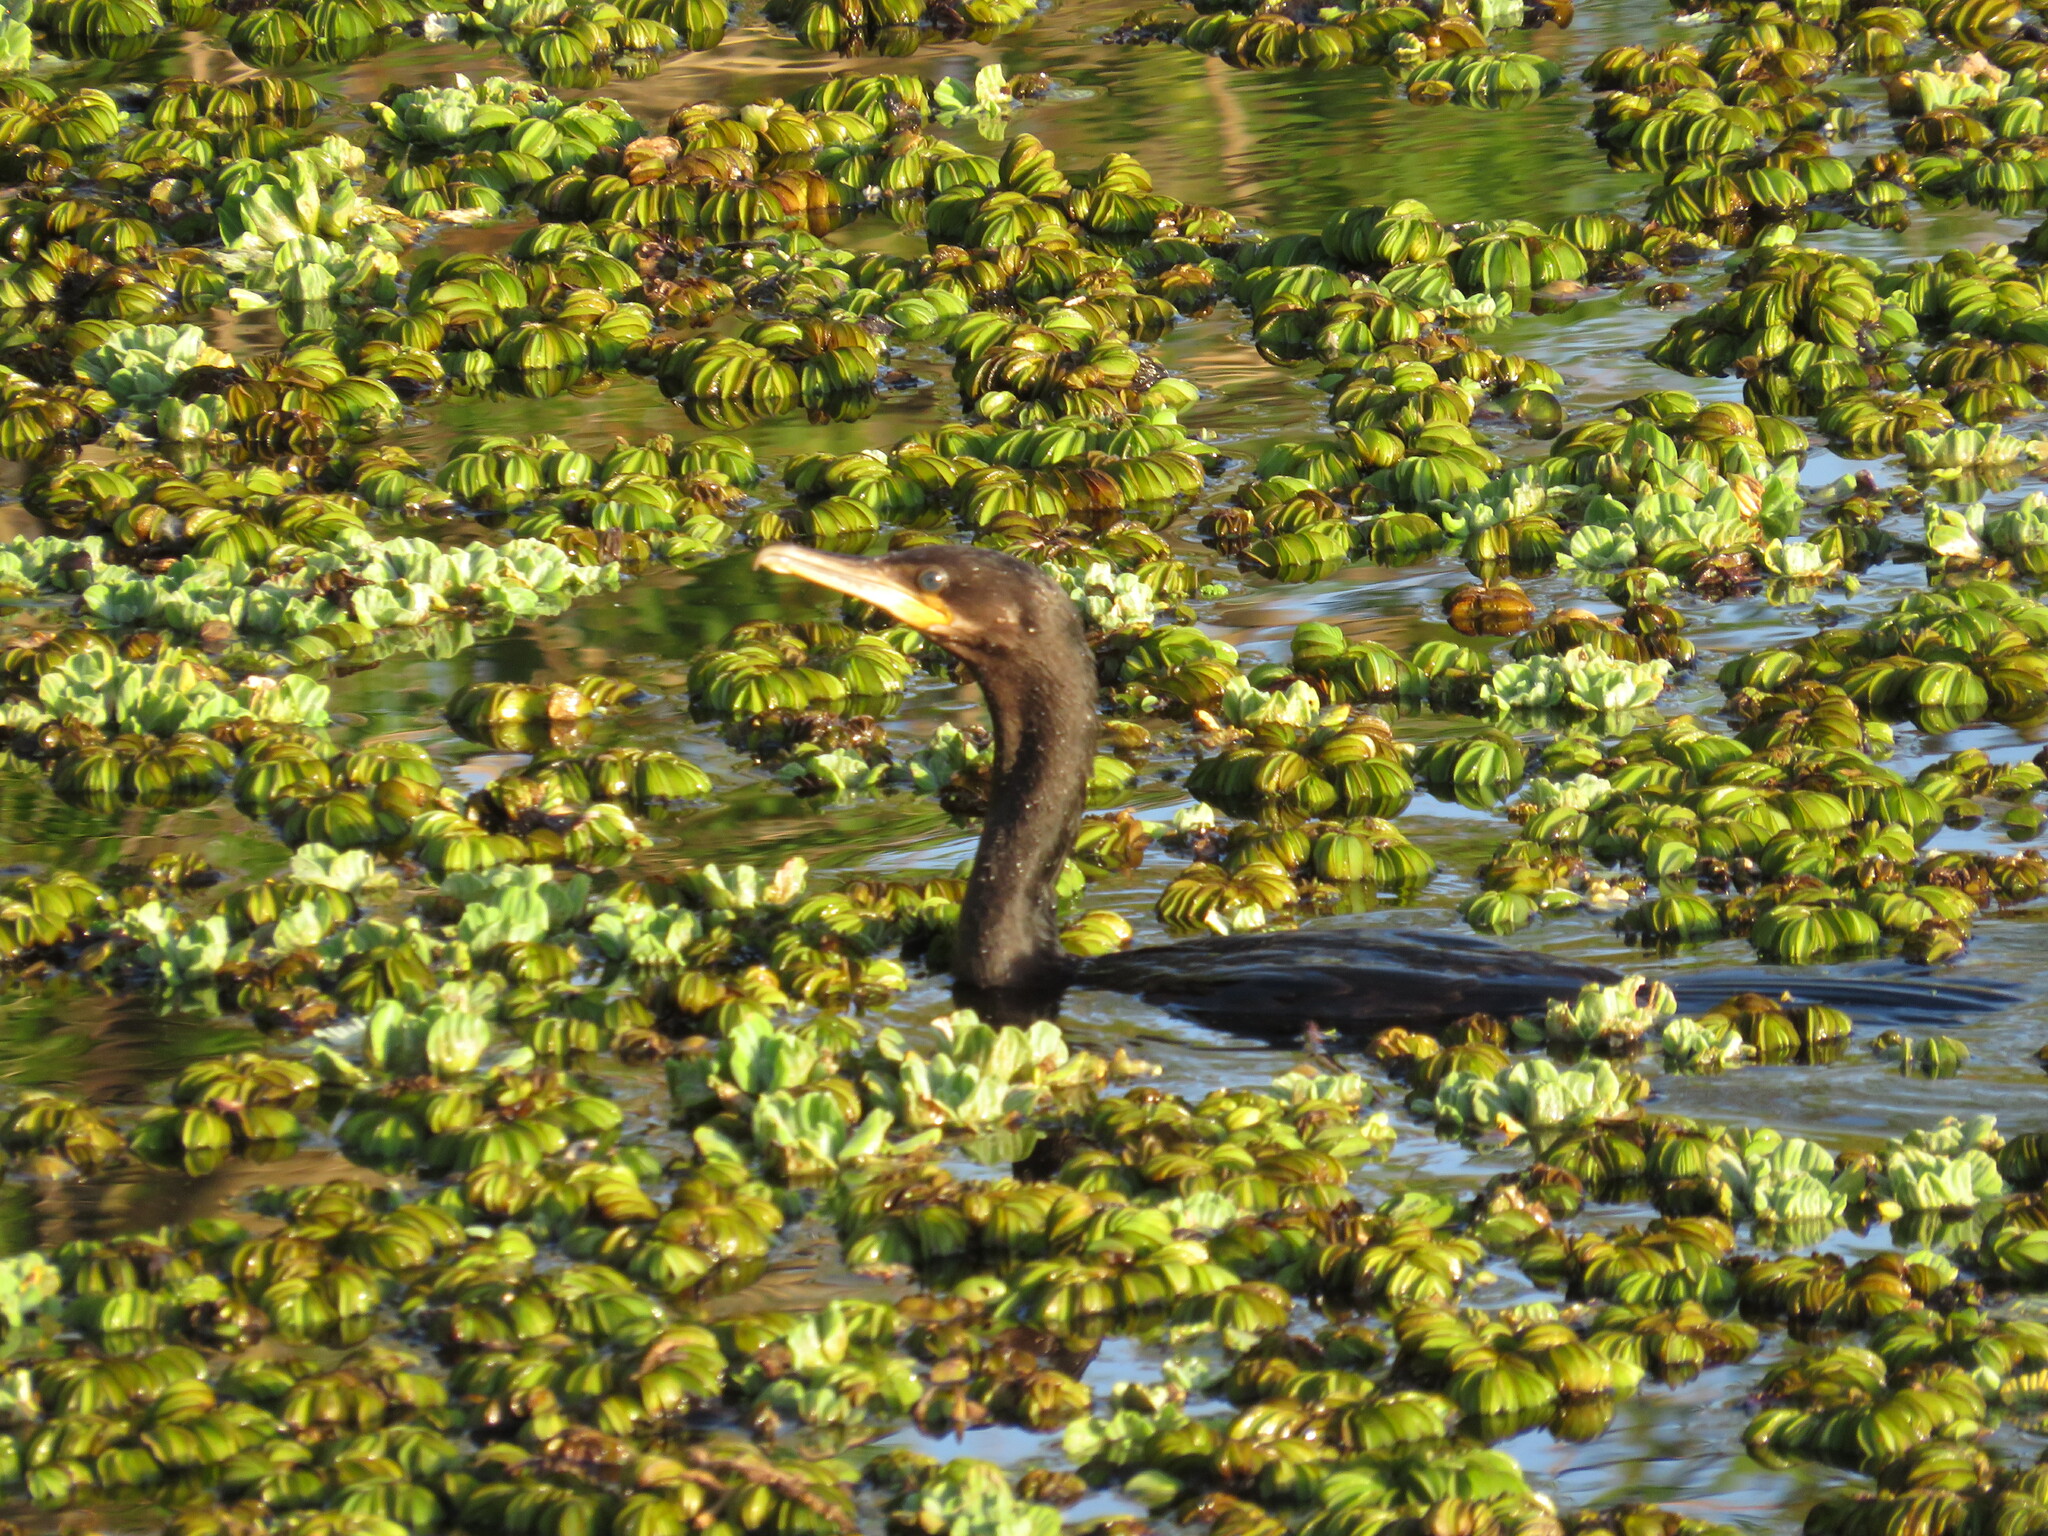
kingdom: Animalia
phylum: Chordata
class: Aves
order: Suliformes
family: Phalacrocoracidae
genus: Phalacrocorax
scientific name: Phalacrocorax brasilianus
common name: Neotropic cormorant
